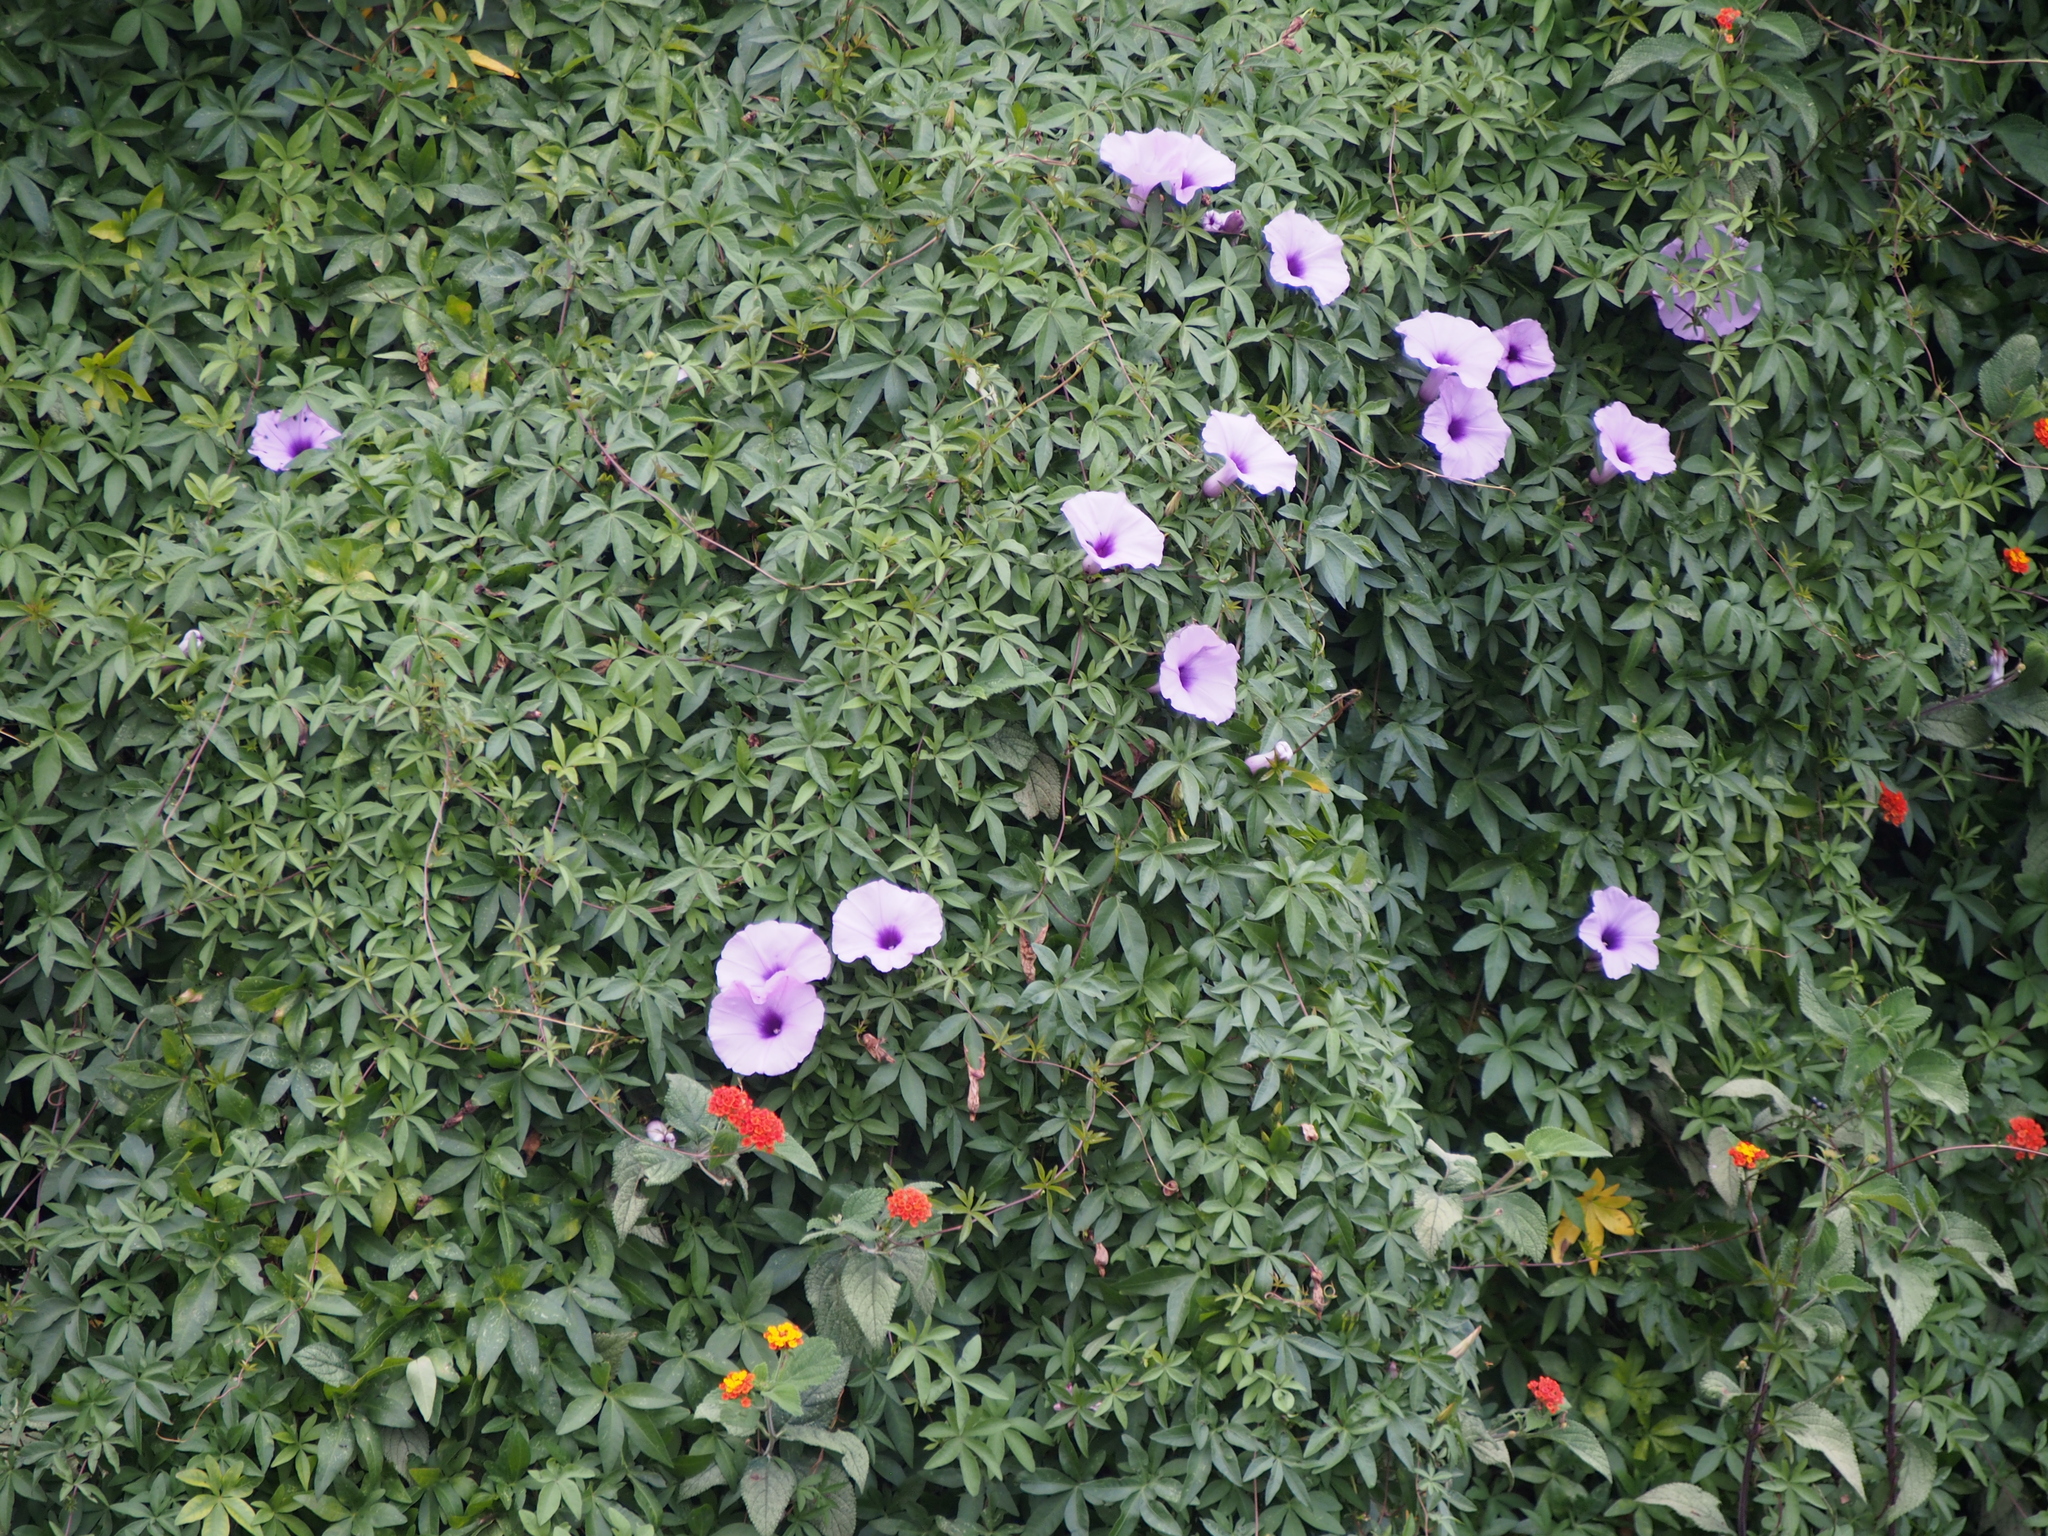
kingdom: Plantae
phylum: Tracheophyta
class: Magnoliopsida
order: Solanales
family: Convolvulaceae
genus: Ipomoea
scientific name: Ipomoea cairica
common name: Mile a minute vine
